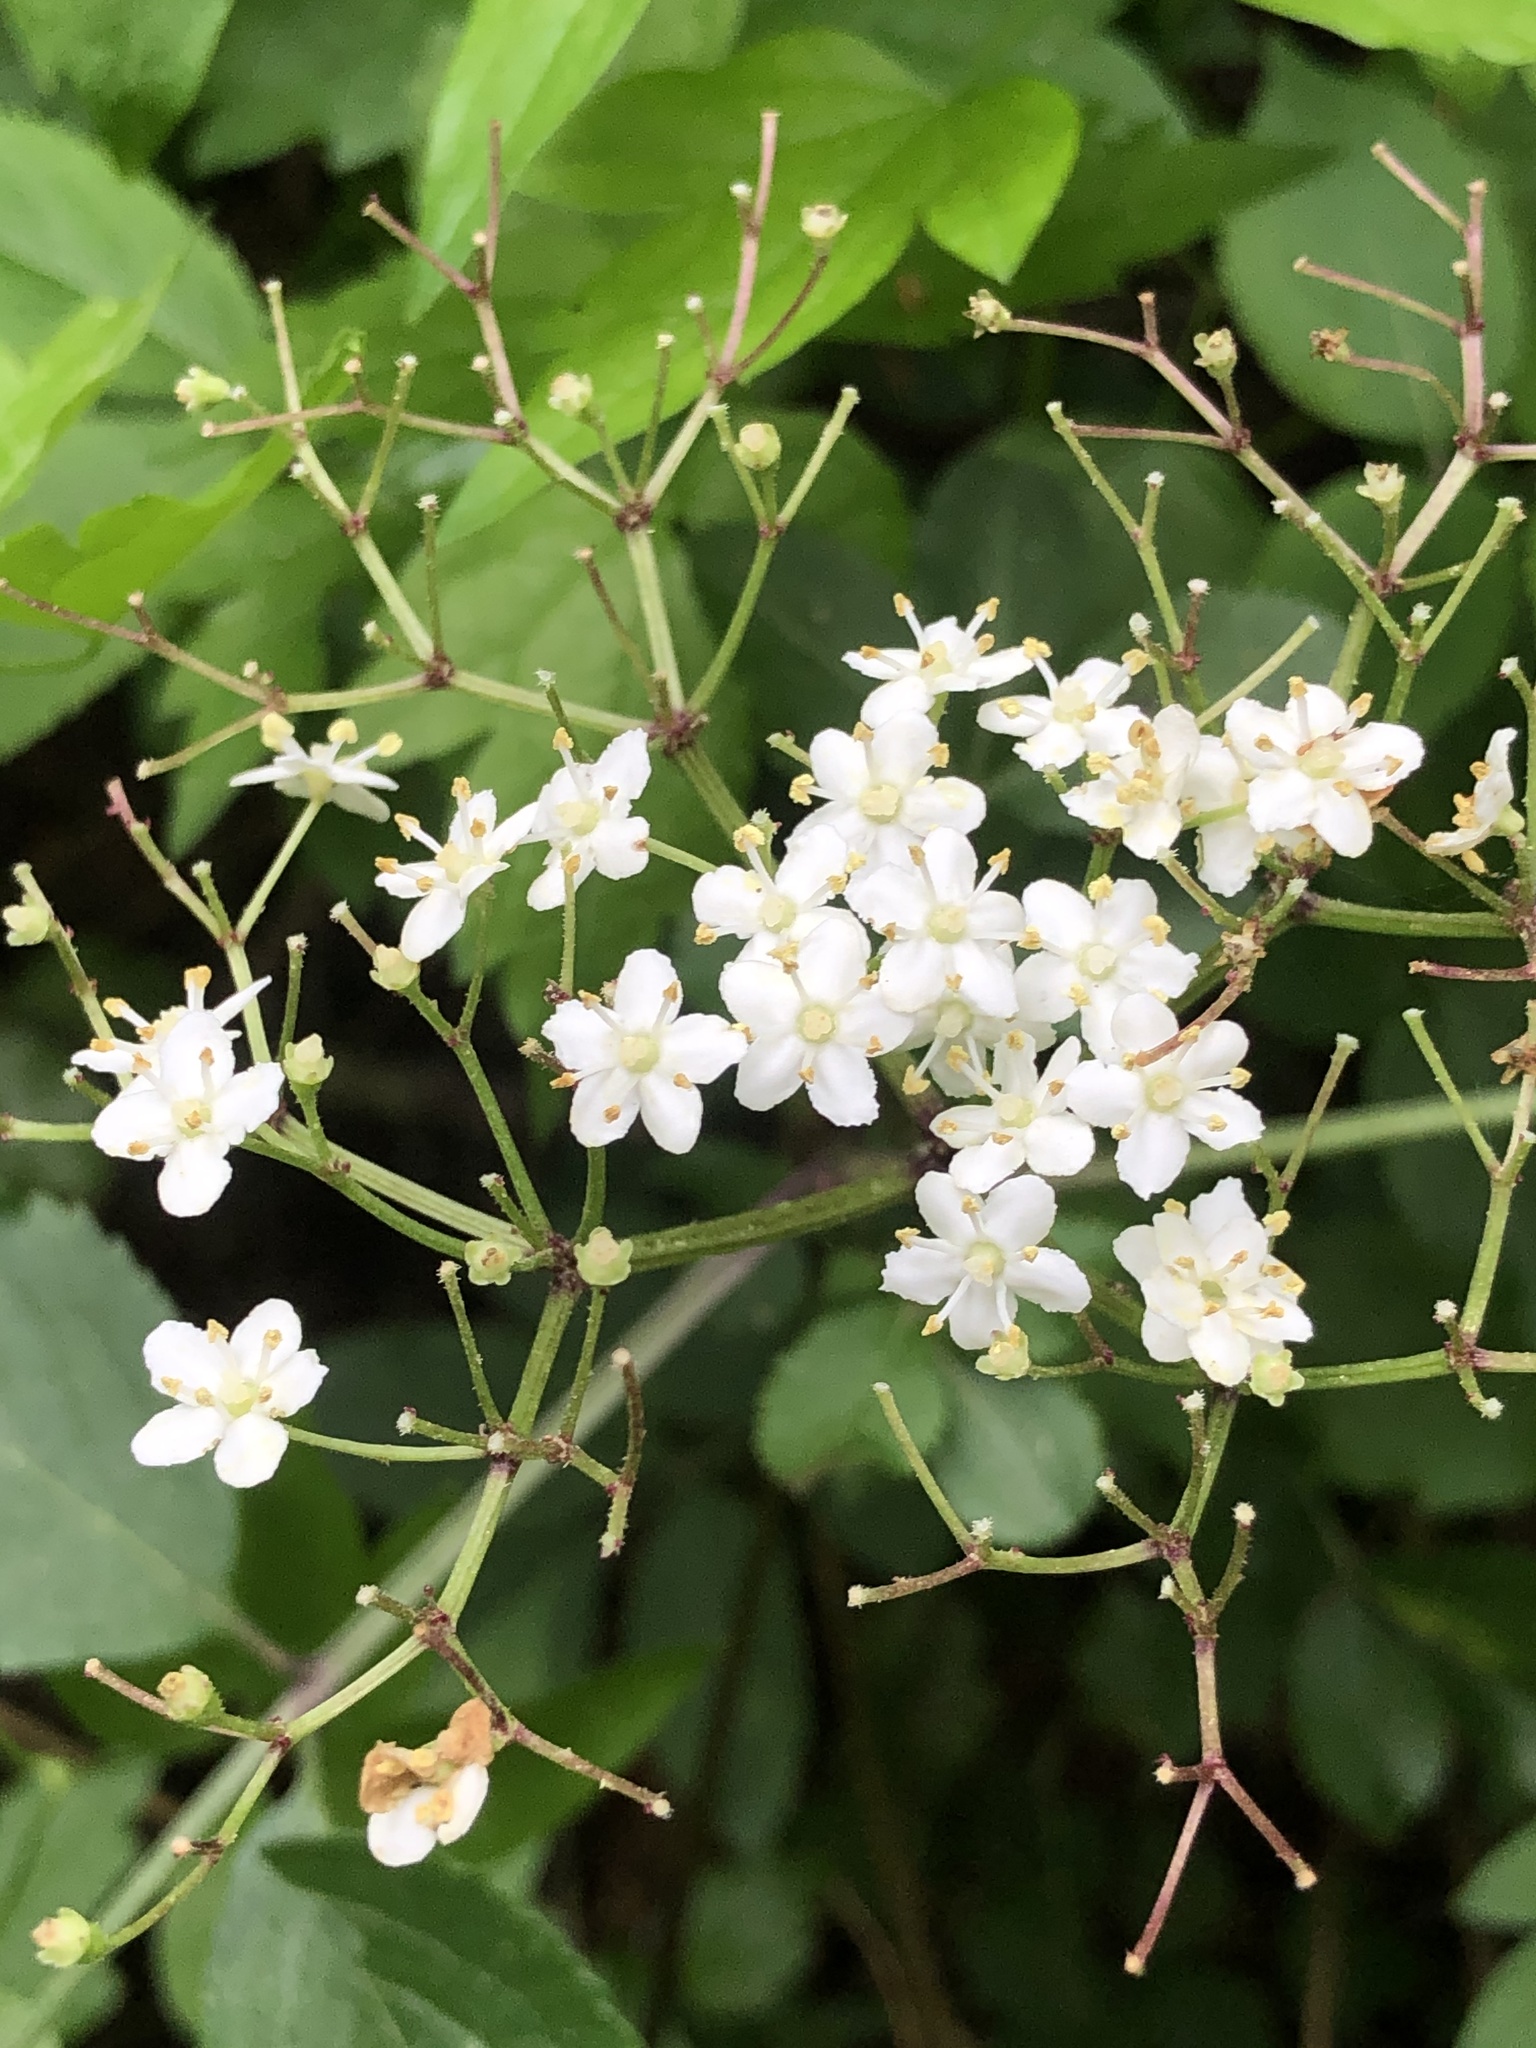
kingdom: Plantae
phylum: Tracheophyta
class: Magnoliopsida
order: Dipsacales
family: Viburnaceae
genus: Sambucus
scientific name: Sambucus nigra
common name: Elder
